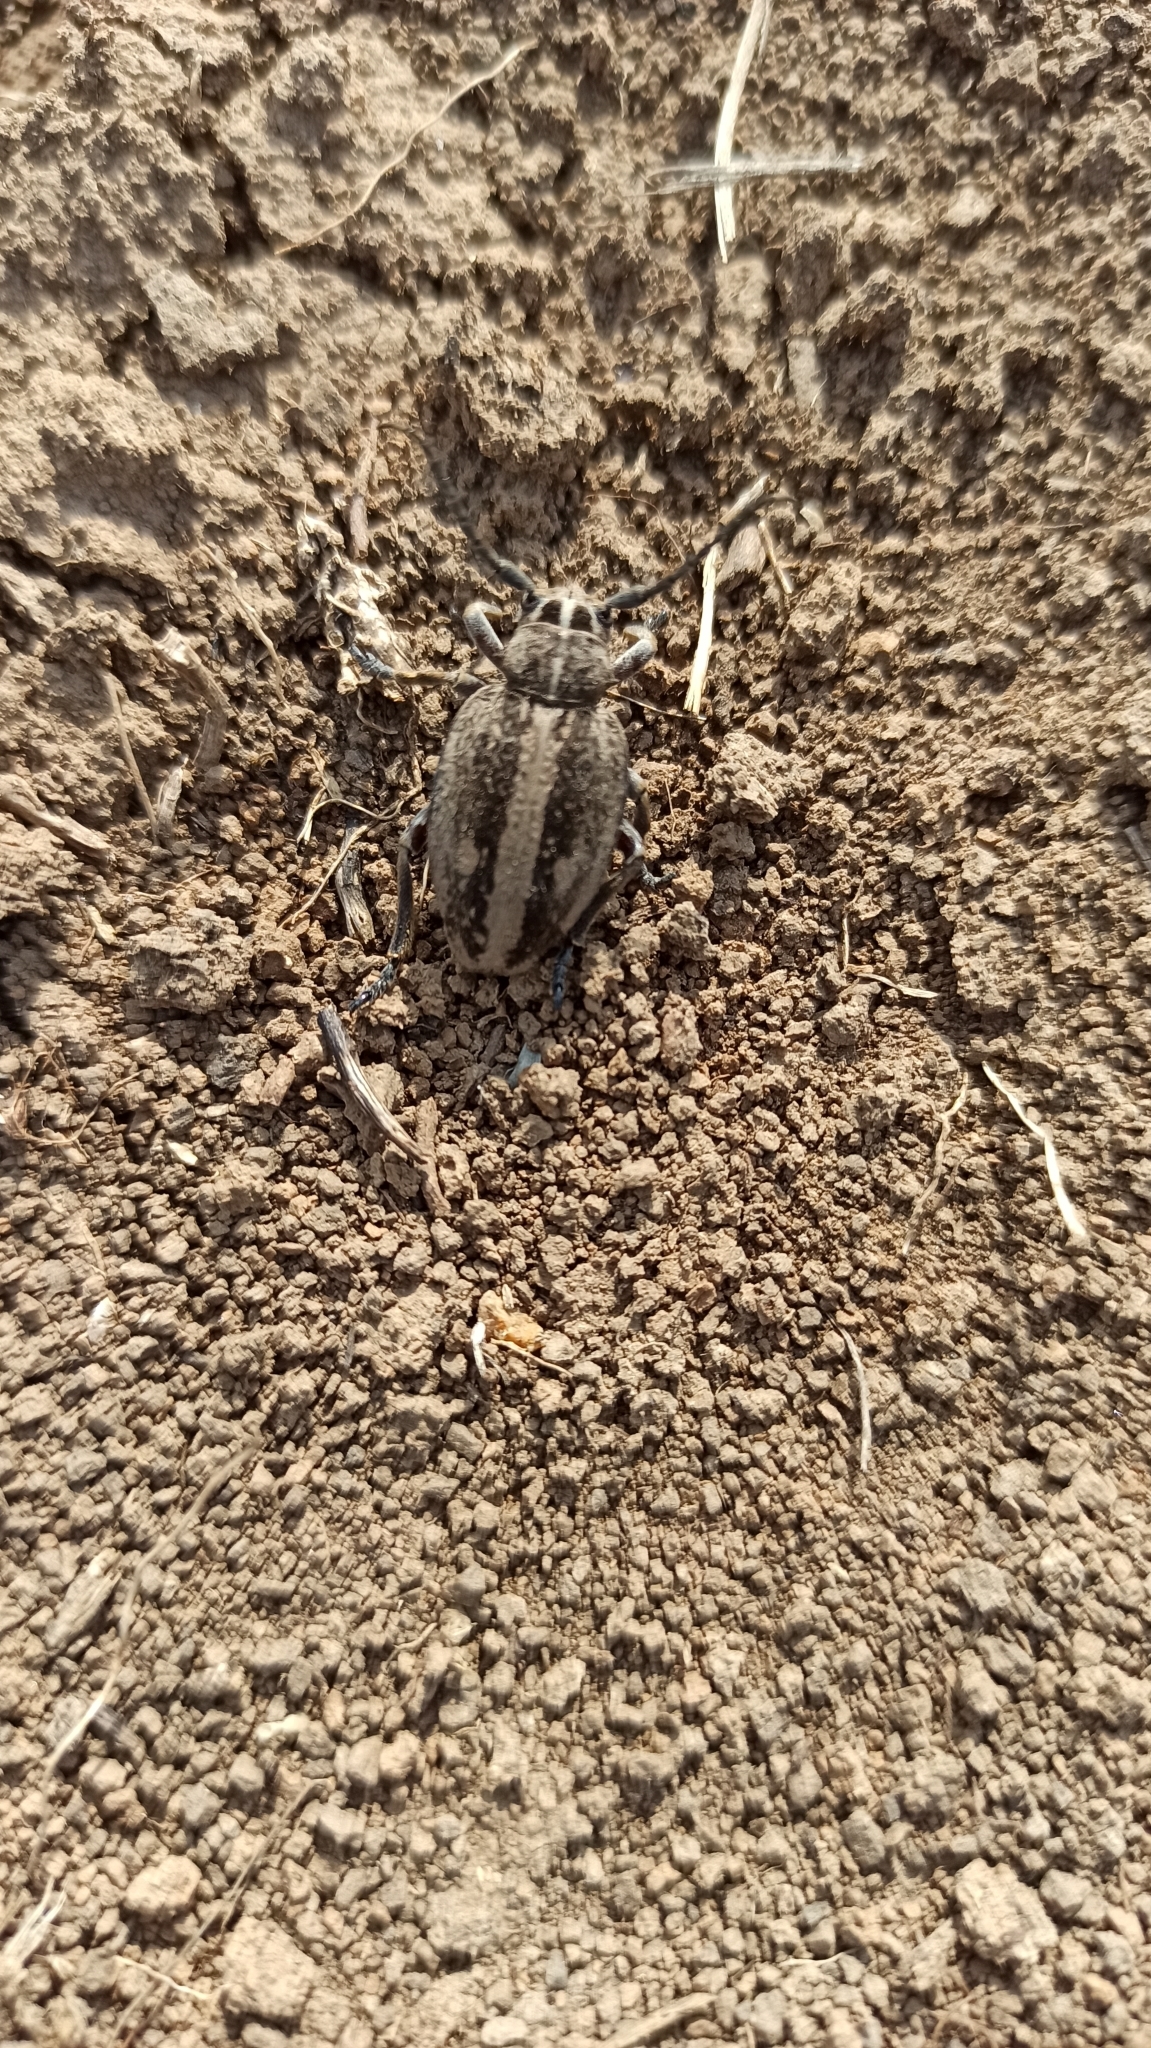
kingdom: Animalia
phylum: Arthropoda
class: Insecta
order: Coleoptera
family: Cerambycidae
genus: Dorcadion
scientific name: Dorcadion equestre
